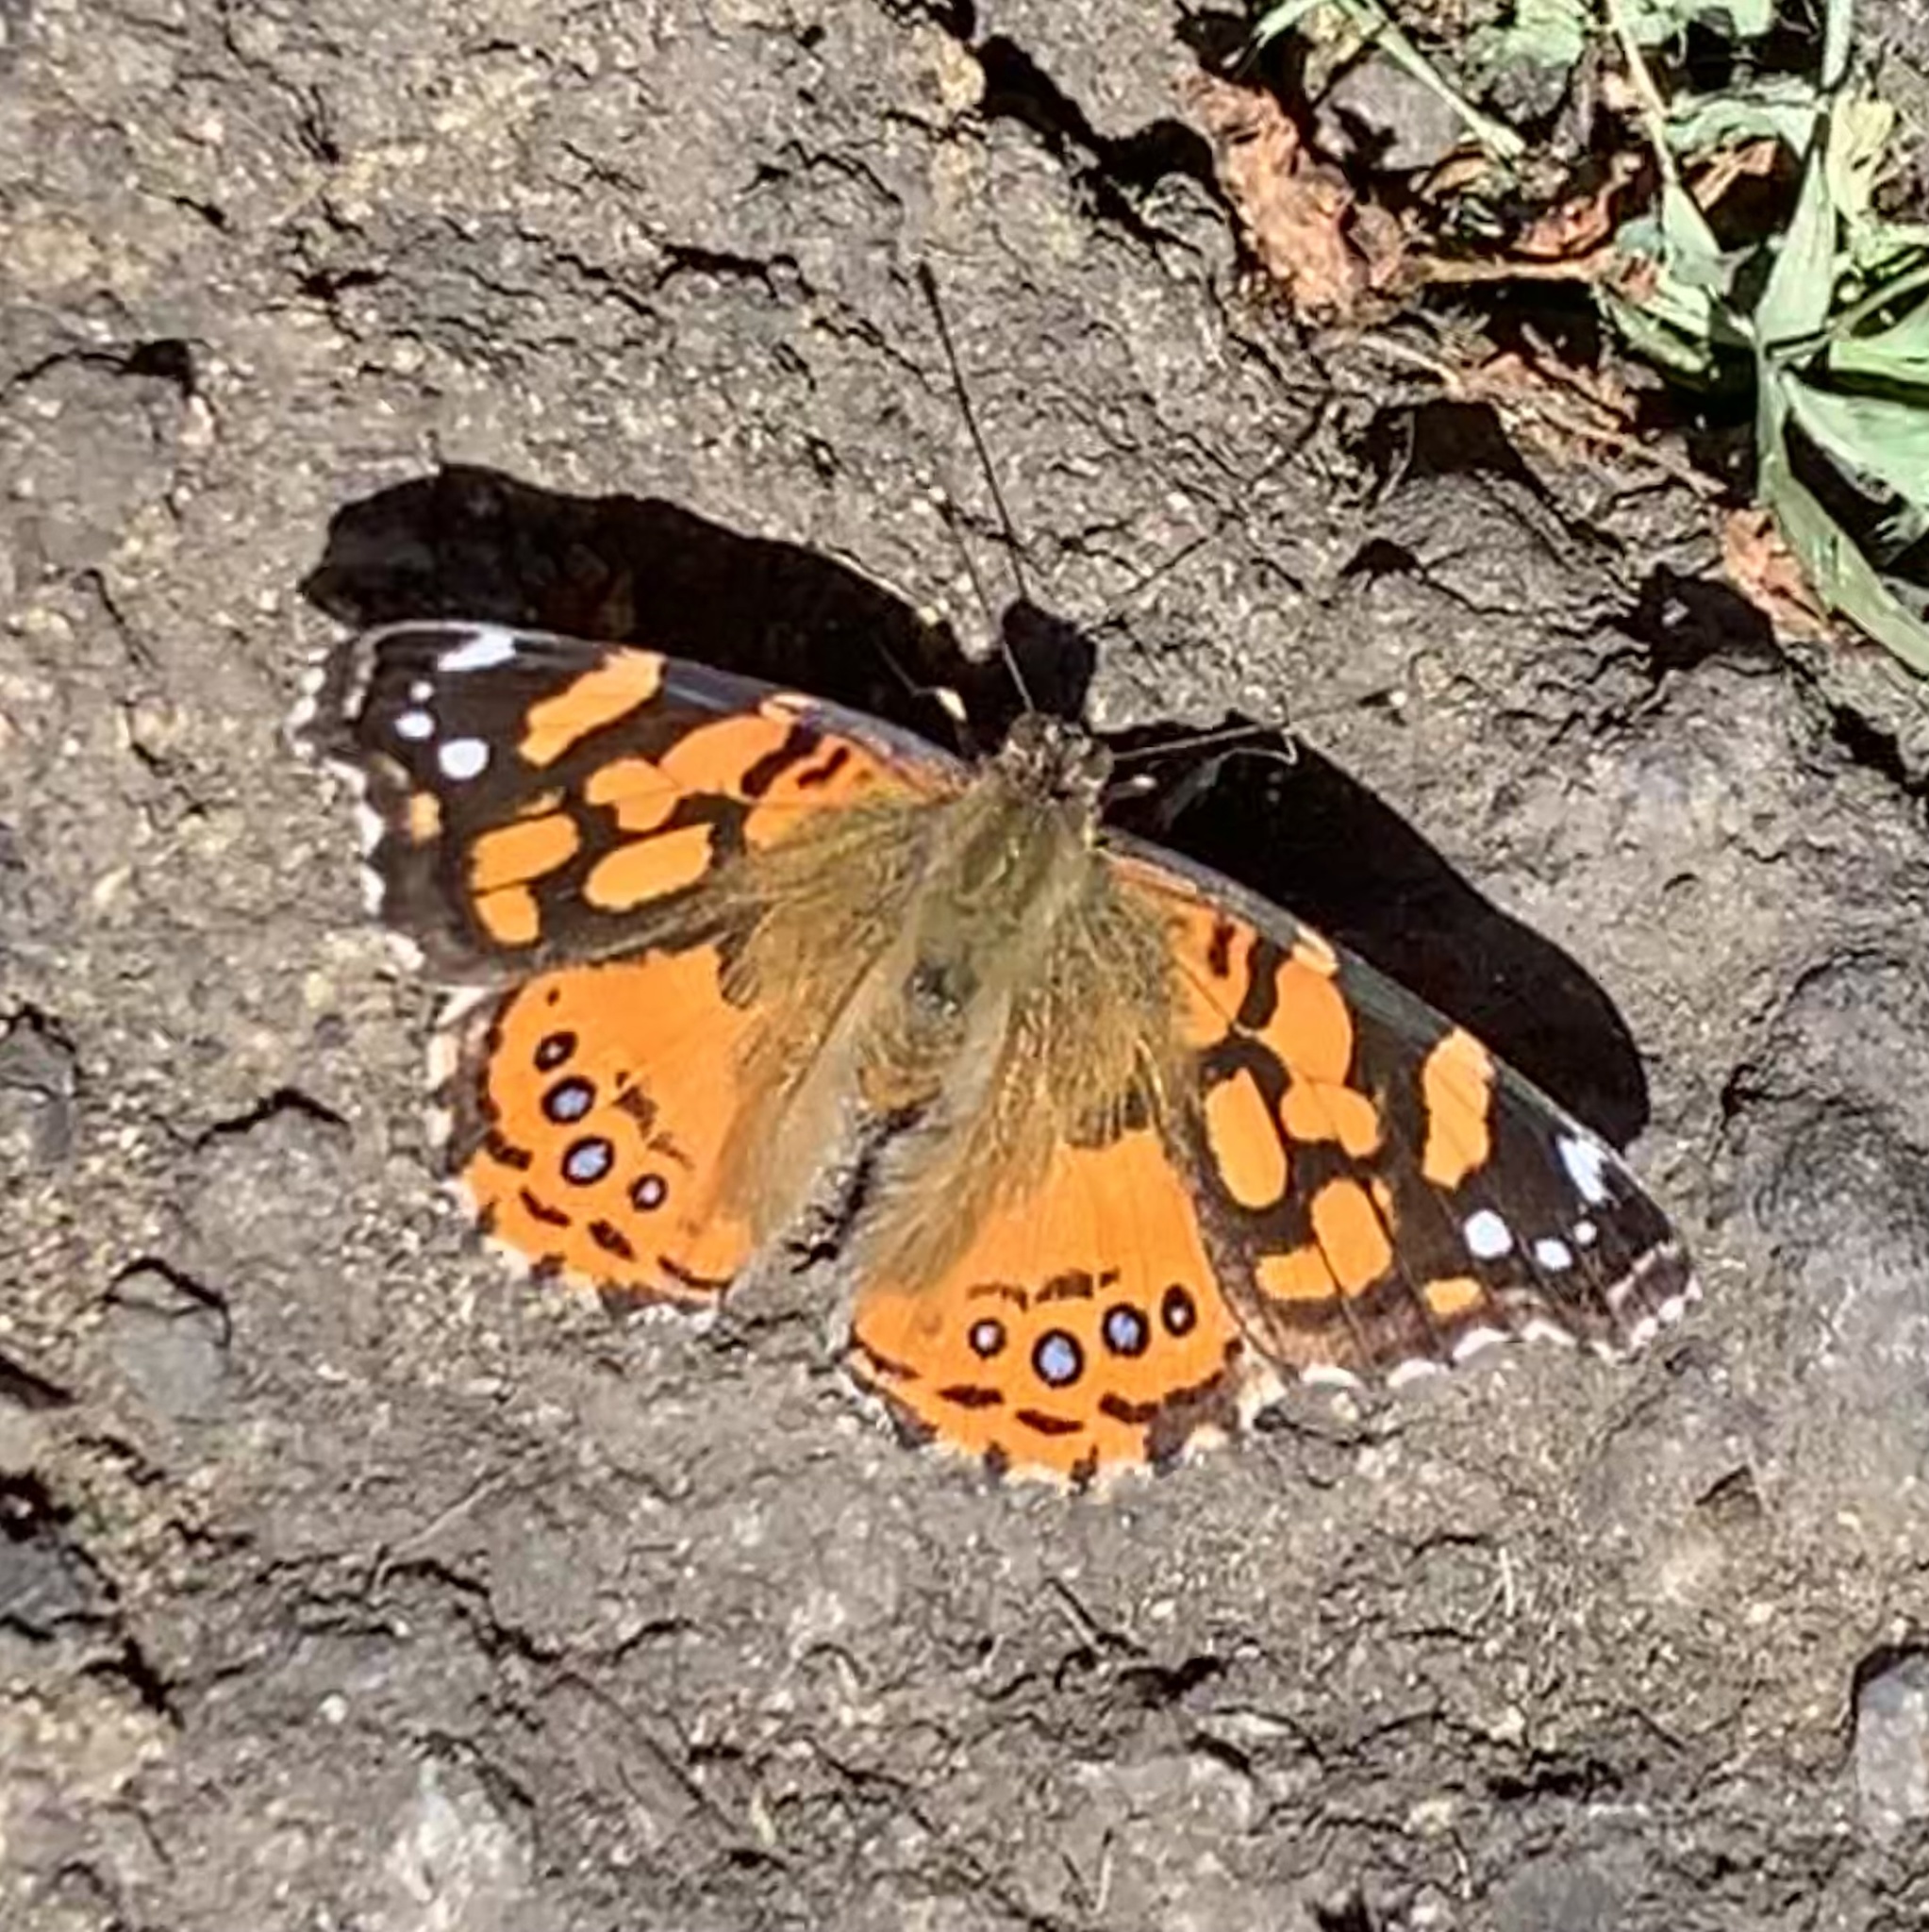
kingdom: Animalia
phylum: Arthropoda
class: Insecta
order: Lepidoptera
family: Nymphalidae
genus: Vanessa
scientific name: Vanessa annabella
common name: West coast lady
